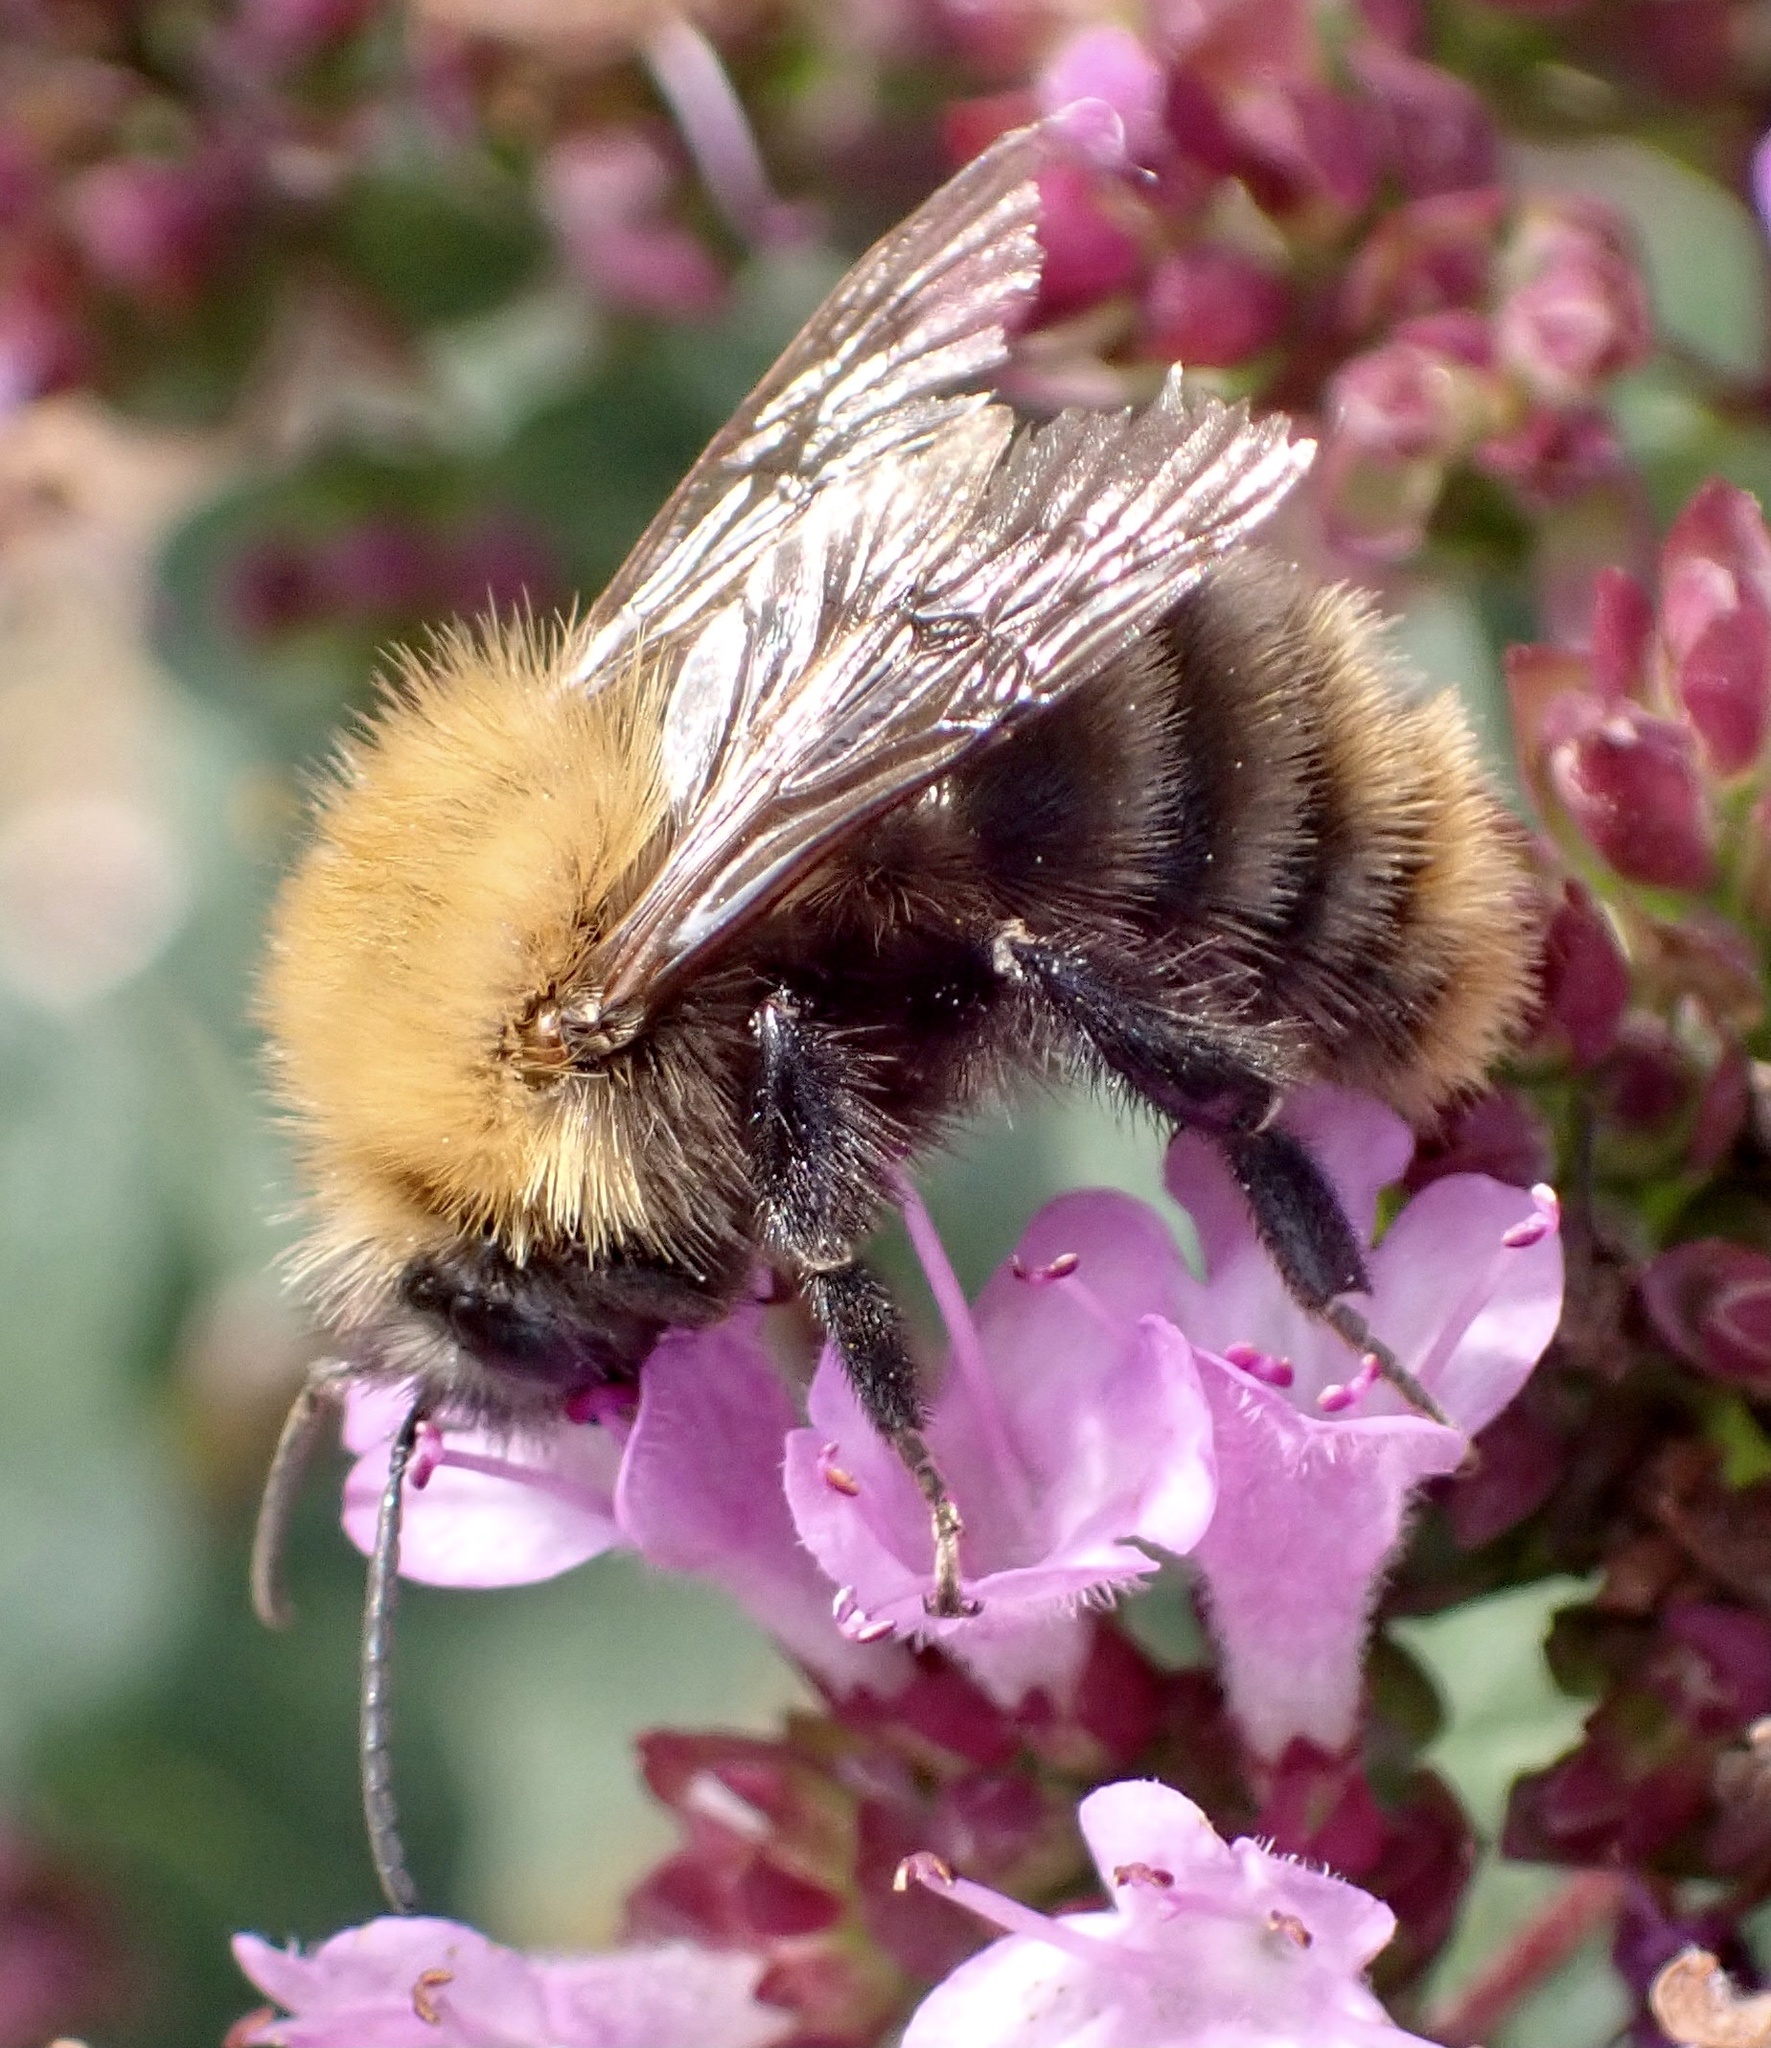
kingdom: Animalia
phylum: Arthropoda
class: Insecta
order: Hymenoptera
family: Apidae
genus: Bombus
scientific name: Bombus pascuorum
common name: Common carder bee
